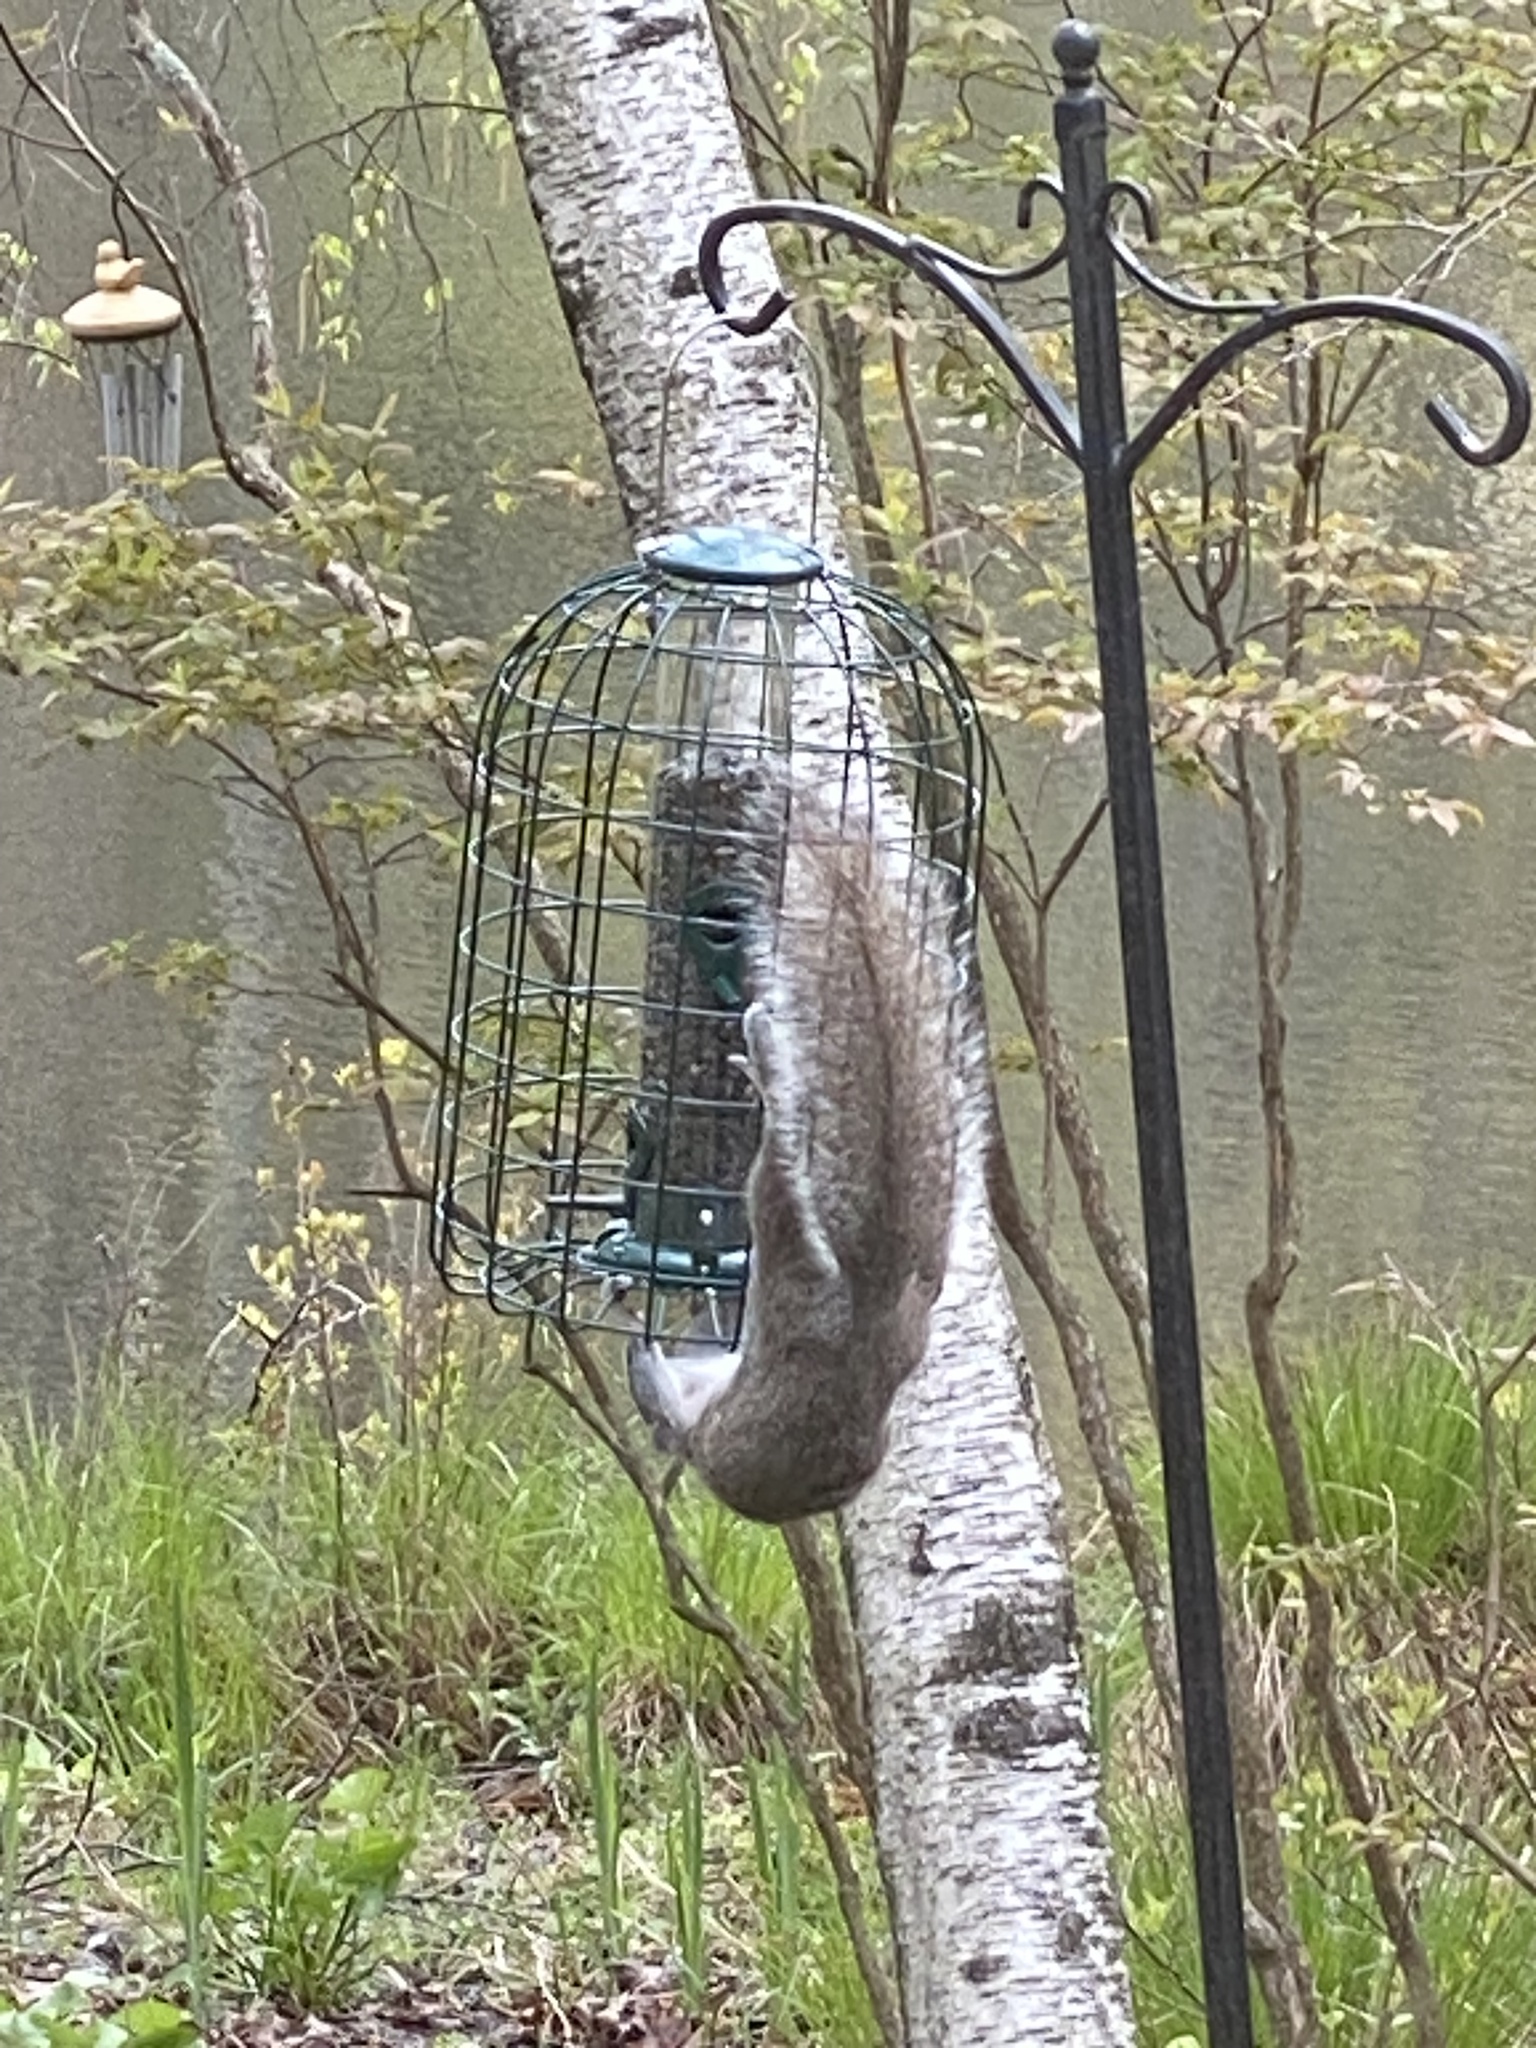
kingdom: Animalia
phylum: Chordata
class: Mammalia
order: Rodentia
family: Sciuridae
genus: Sciurus
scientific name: Sciurus carolinensis
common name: Eastern gray squirrel
